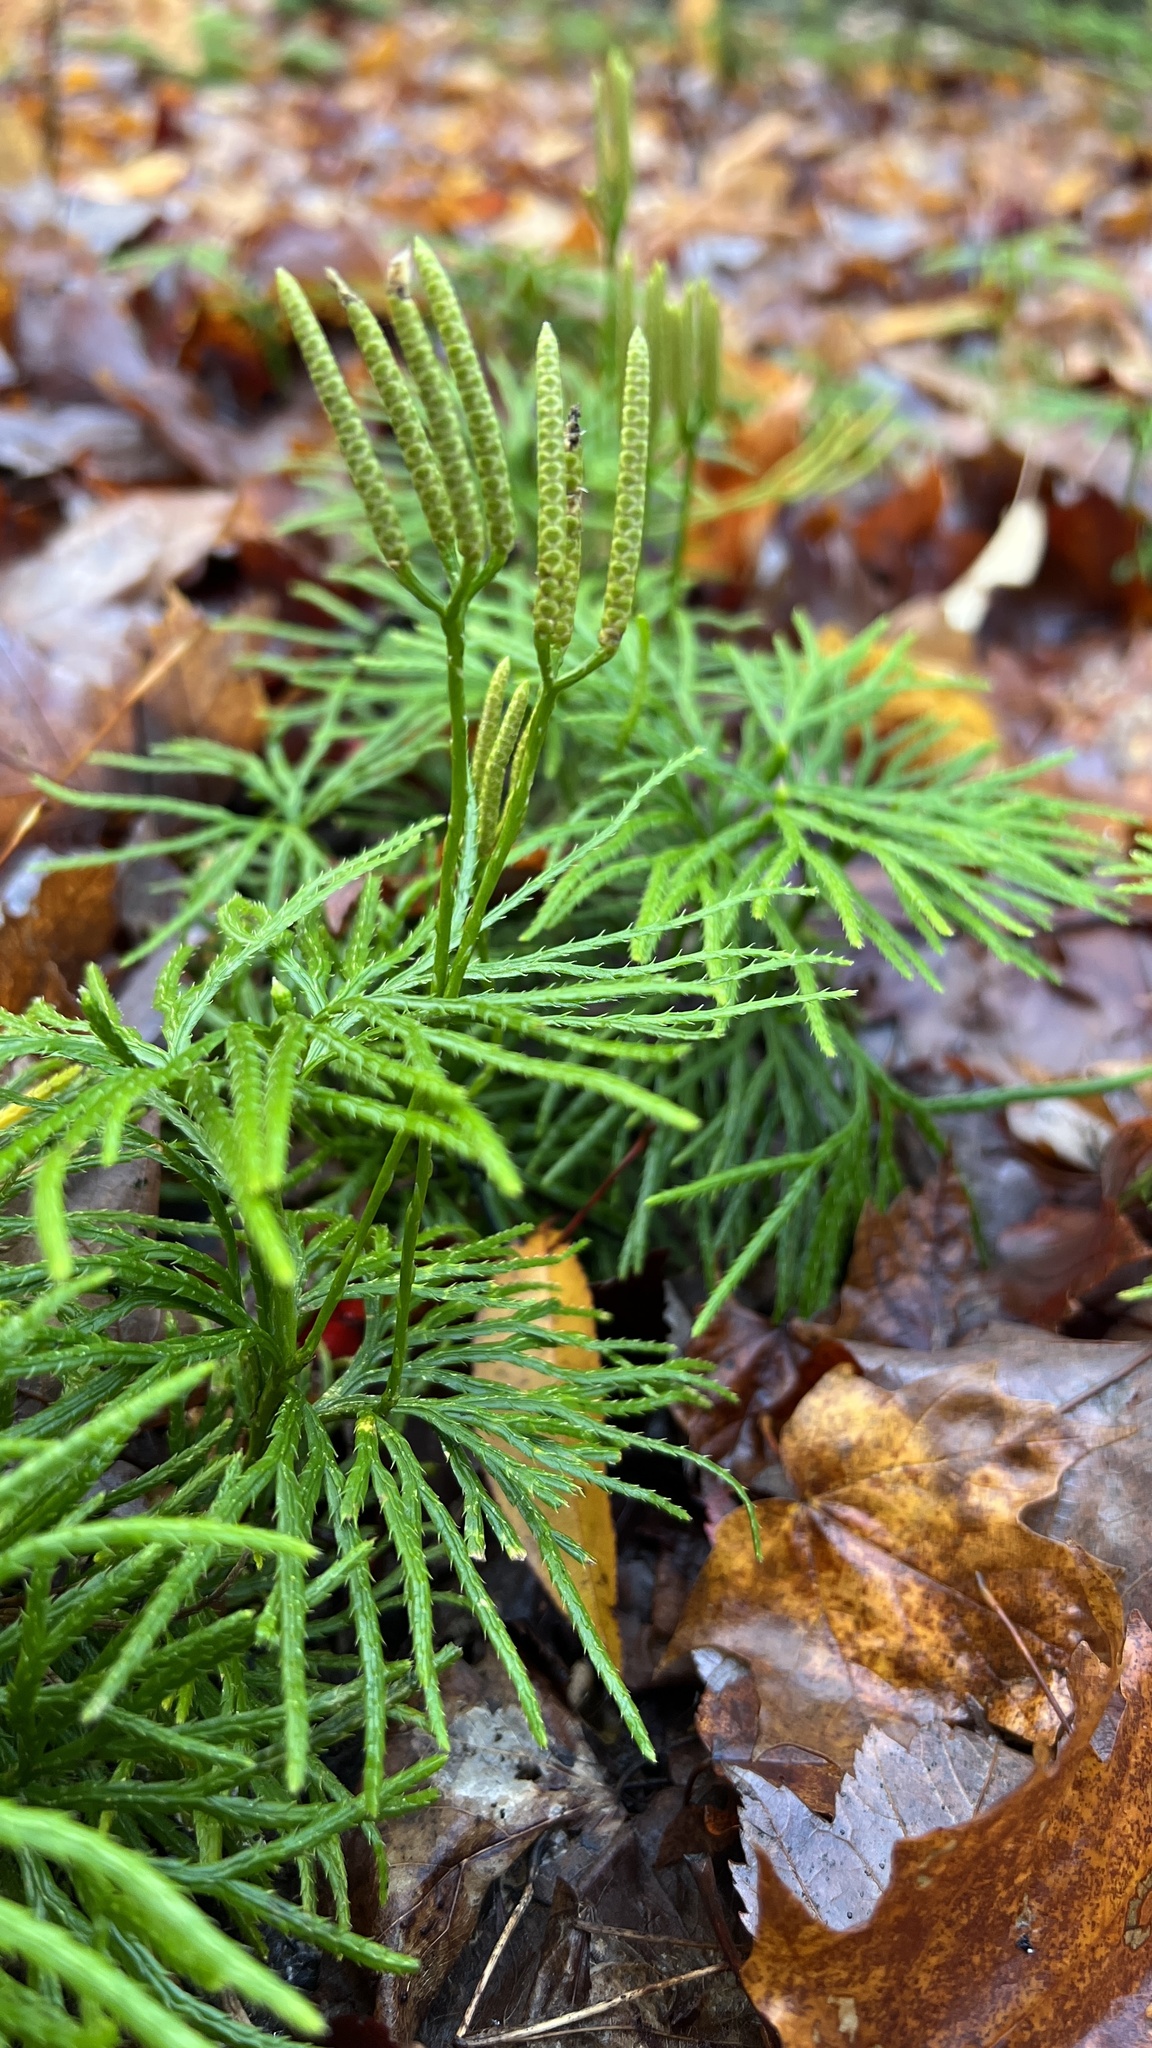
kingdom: Plantae
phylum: Tracheophyta
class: Lycopodiopsida
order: Lycopodiales
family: Lycopodiaceae
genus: Diphasiastrum
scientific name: Diphasiastrum digitatum
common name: Southern running-pine
